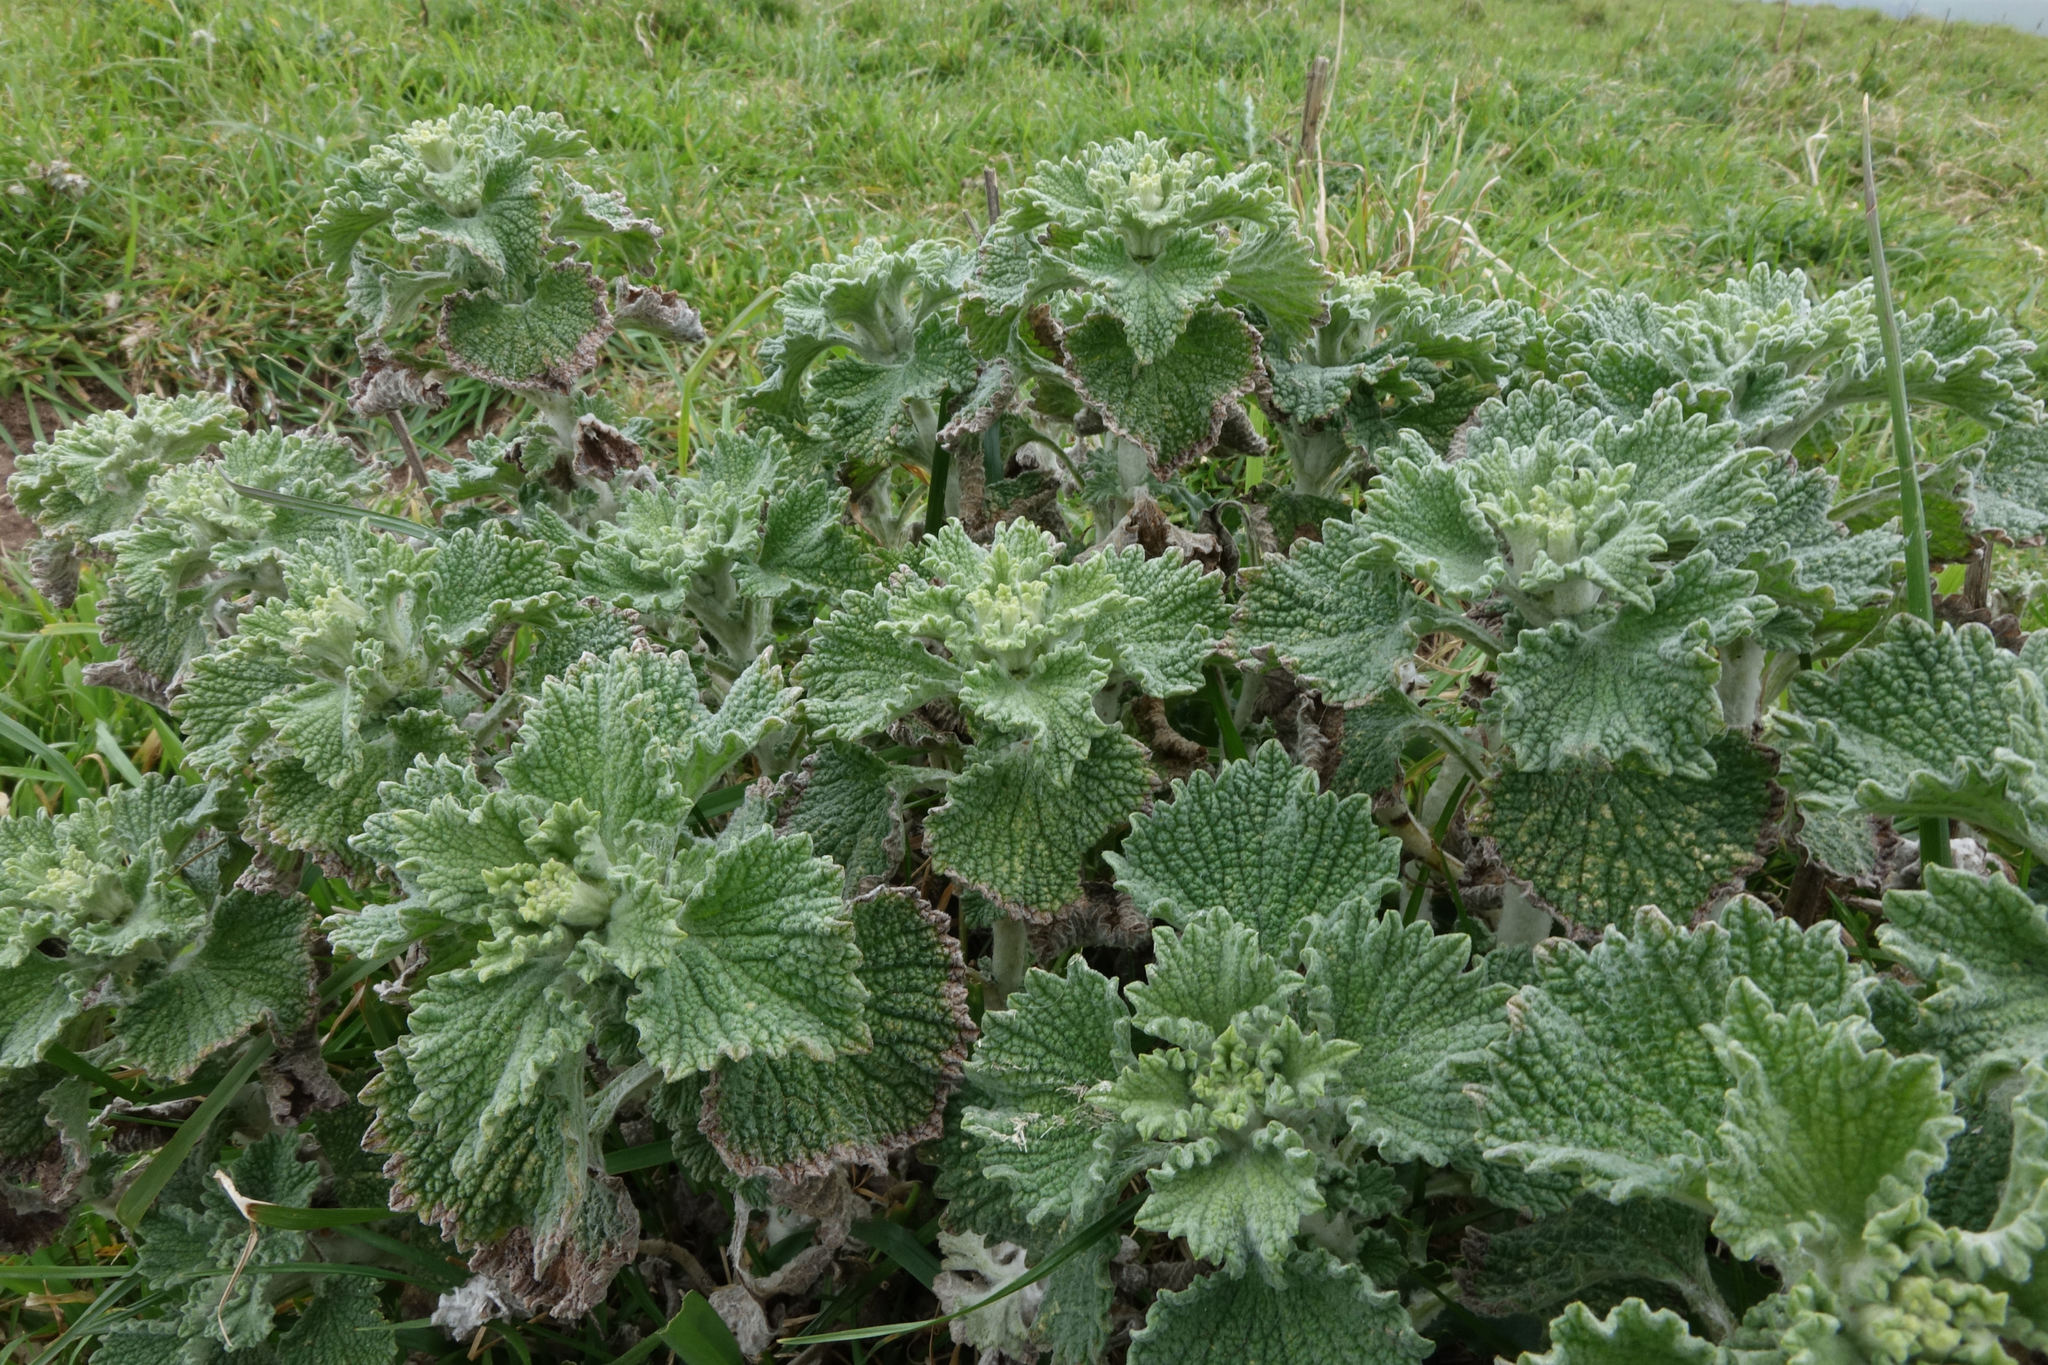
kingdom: Plantae
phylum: Tracheophyta
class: Magnoliopsida
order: Lamiales
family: Lamiaceae
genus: Marrubium
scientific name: Marrubium vulgare
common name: Horehound
